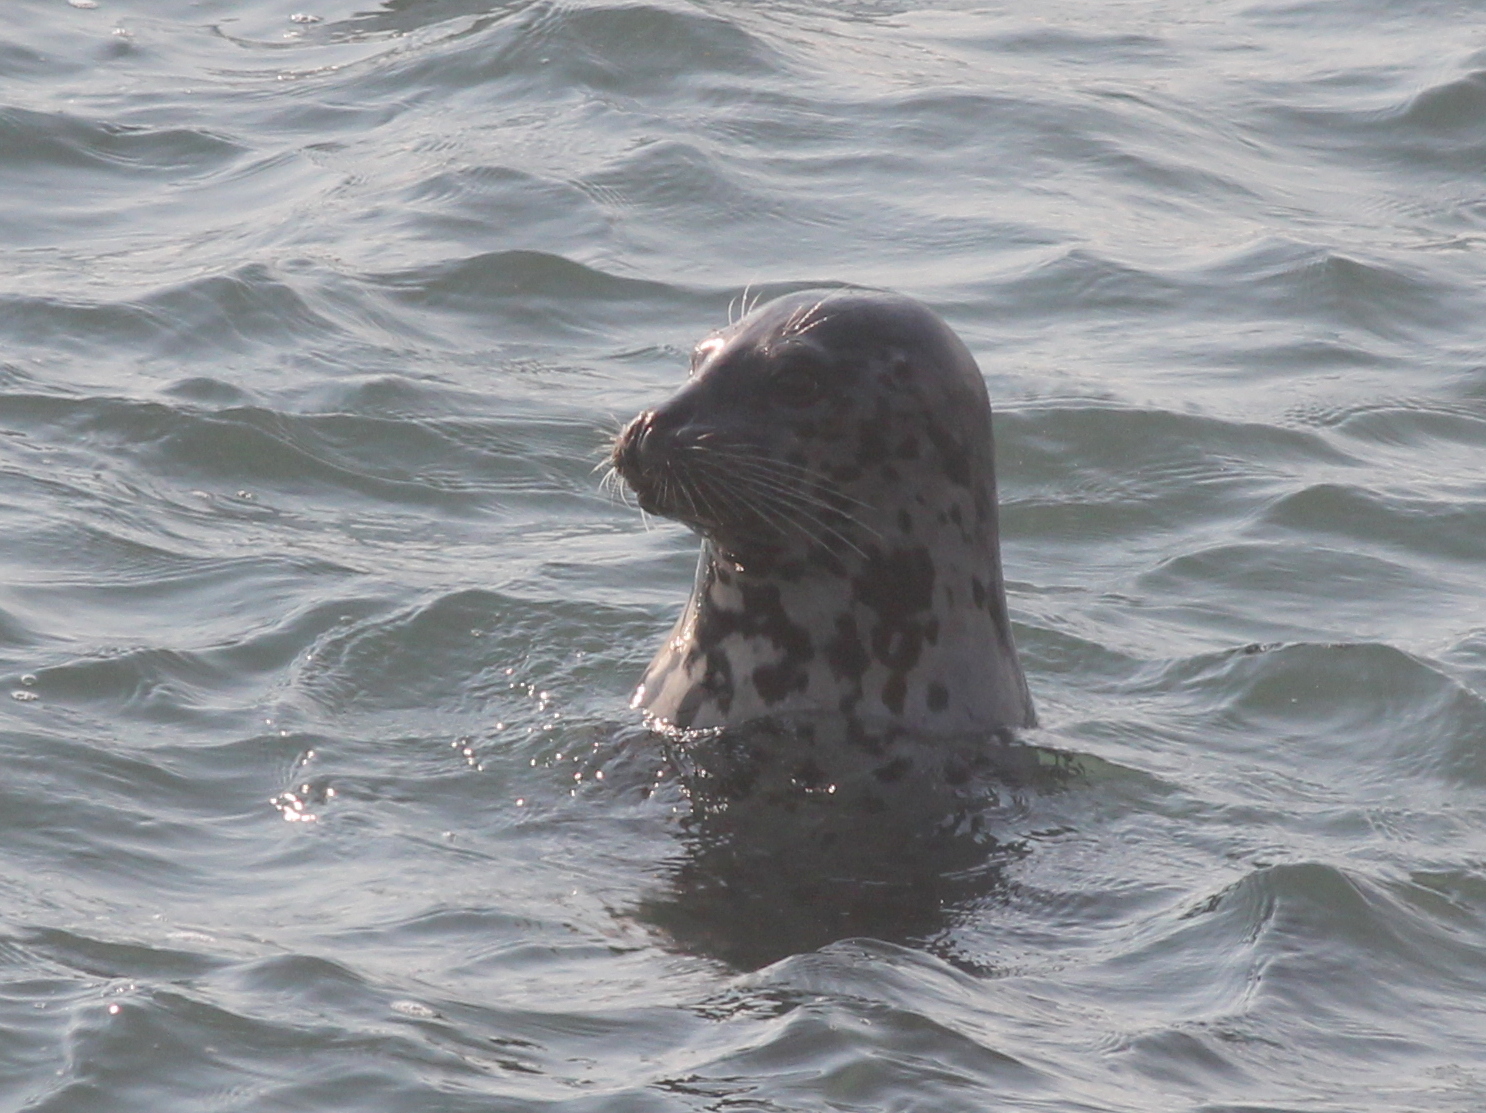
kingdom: Animalia
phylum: Chordata
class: Mammalia
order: Carnivora
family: Phocidae
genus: Phoca
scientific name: Phoca vitulina
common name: Harbor seal
